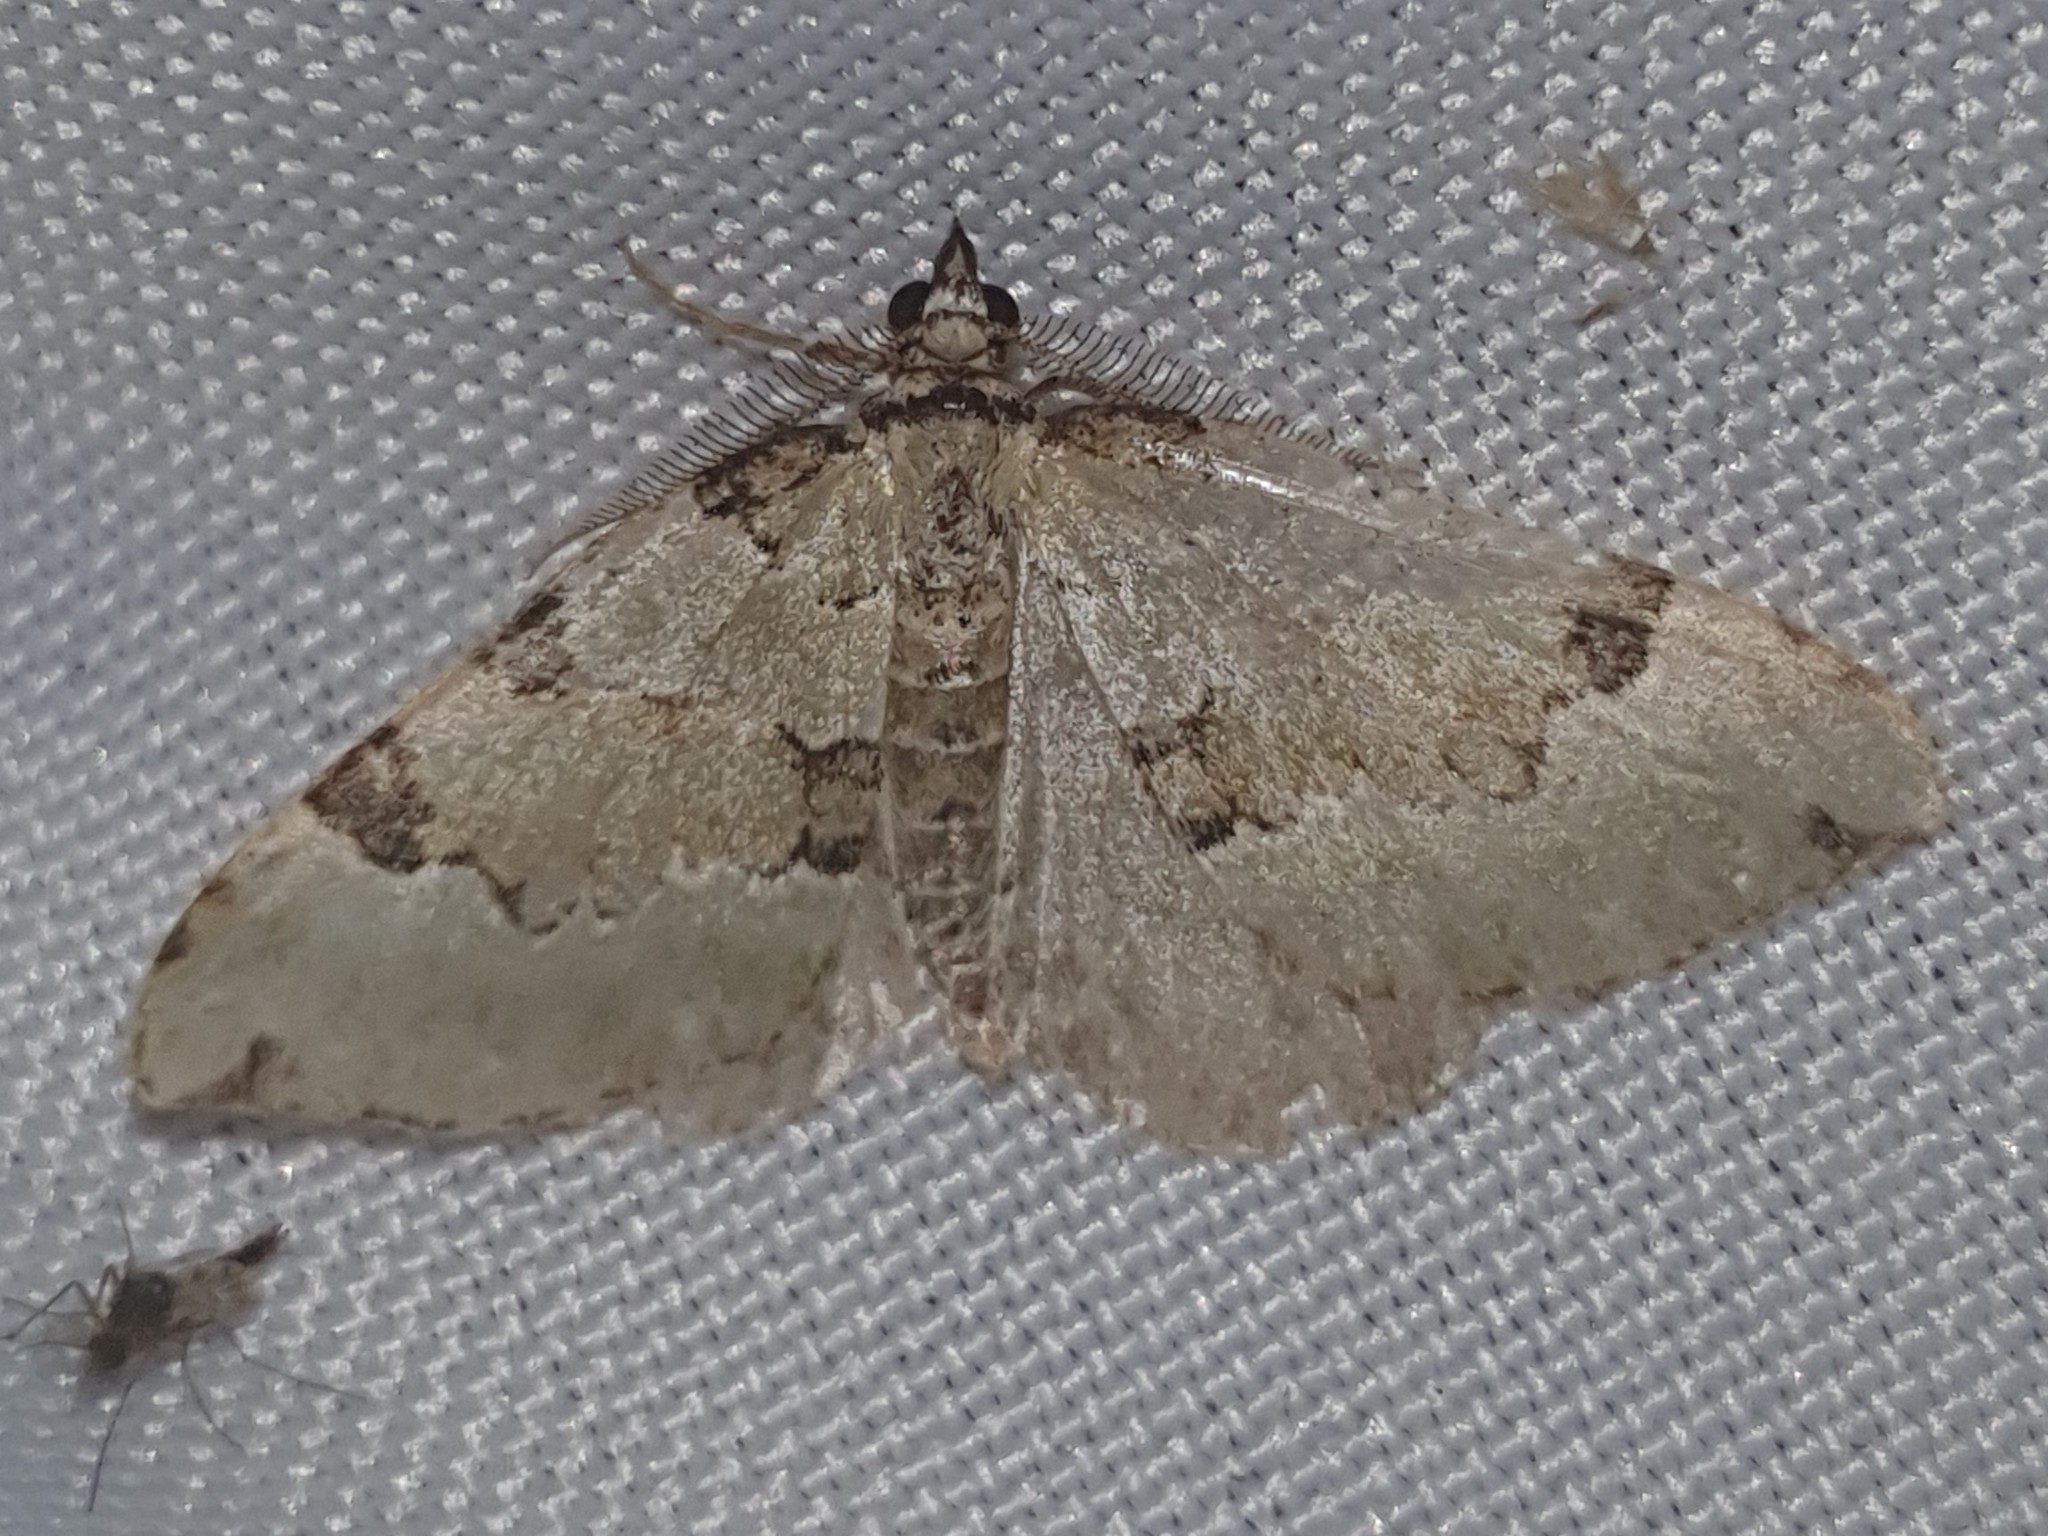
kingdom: Animalia
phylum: Arthropoda
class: Insecta
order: Lepidoptera
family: Geometridae
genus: Colostygia
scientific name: Colostygia pectinataria
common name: Green carpet
